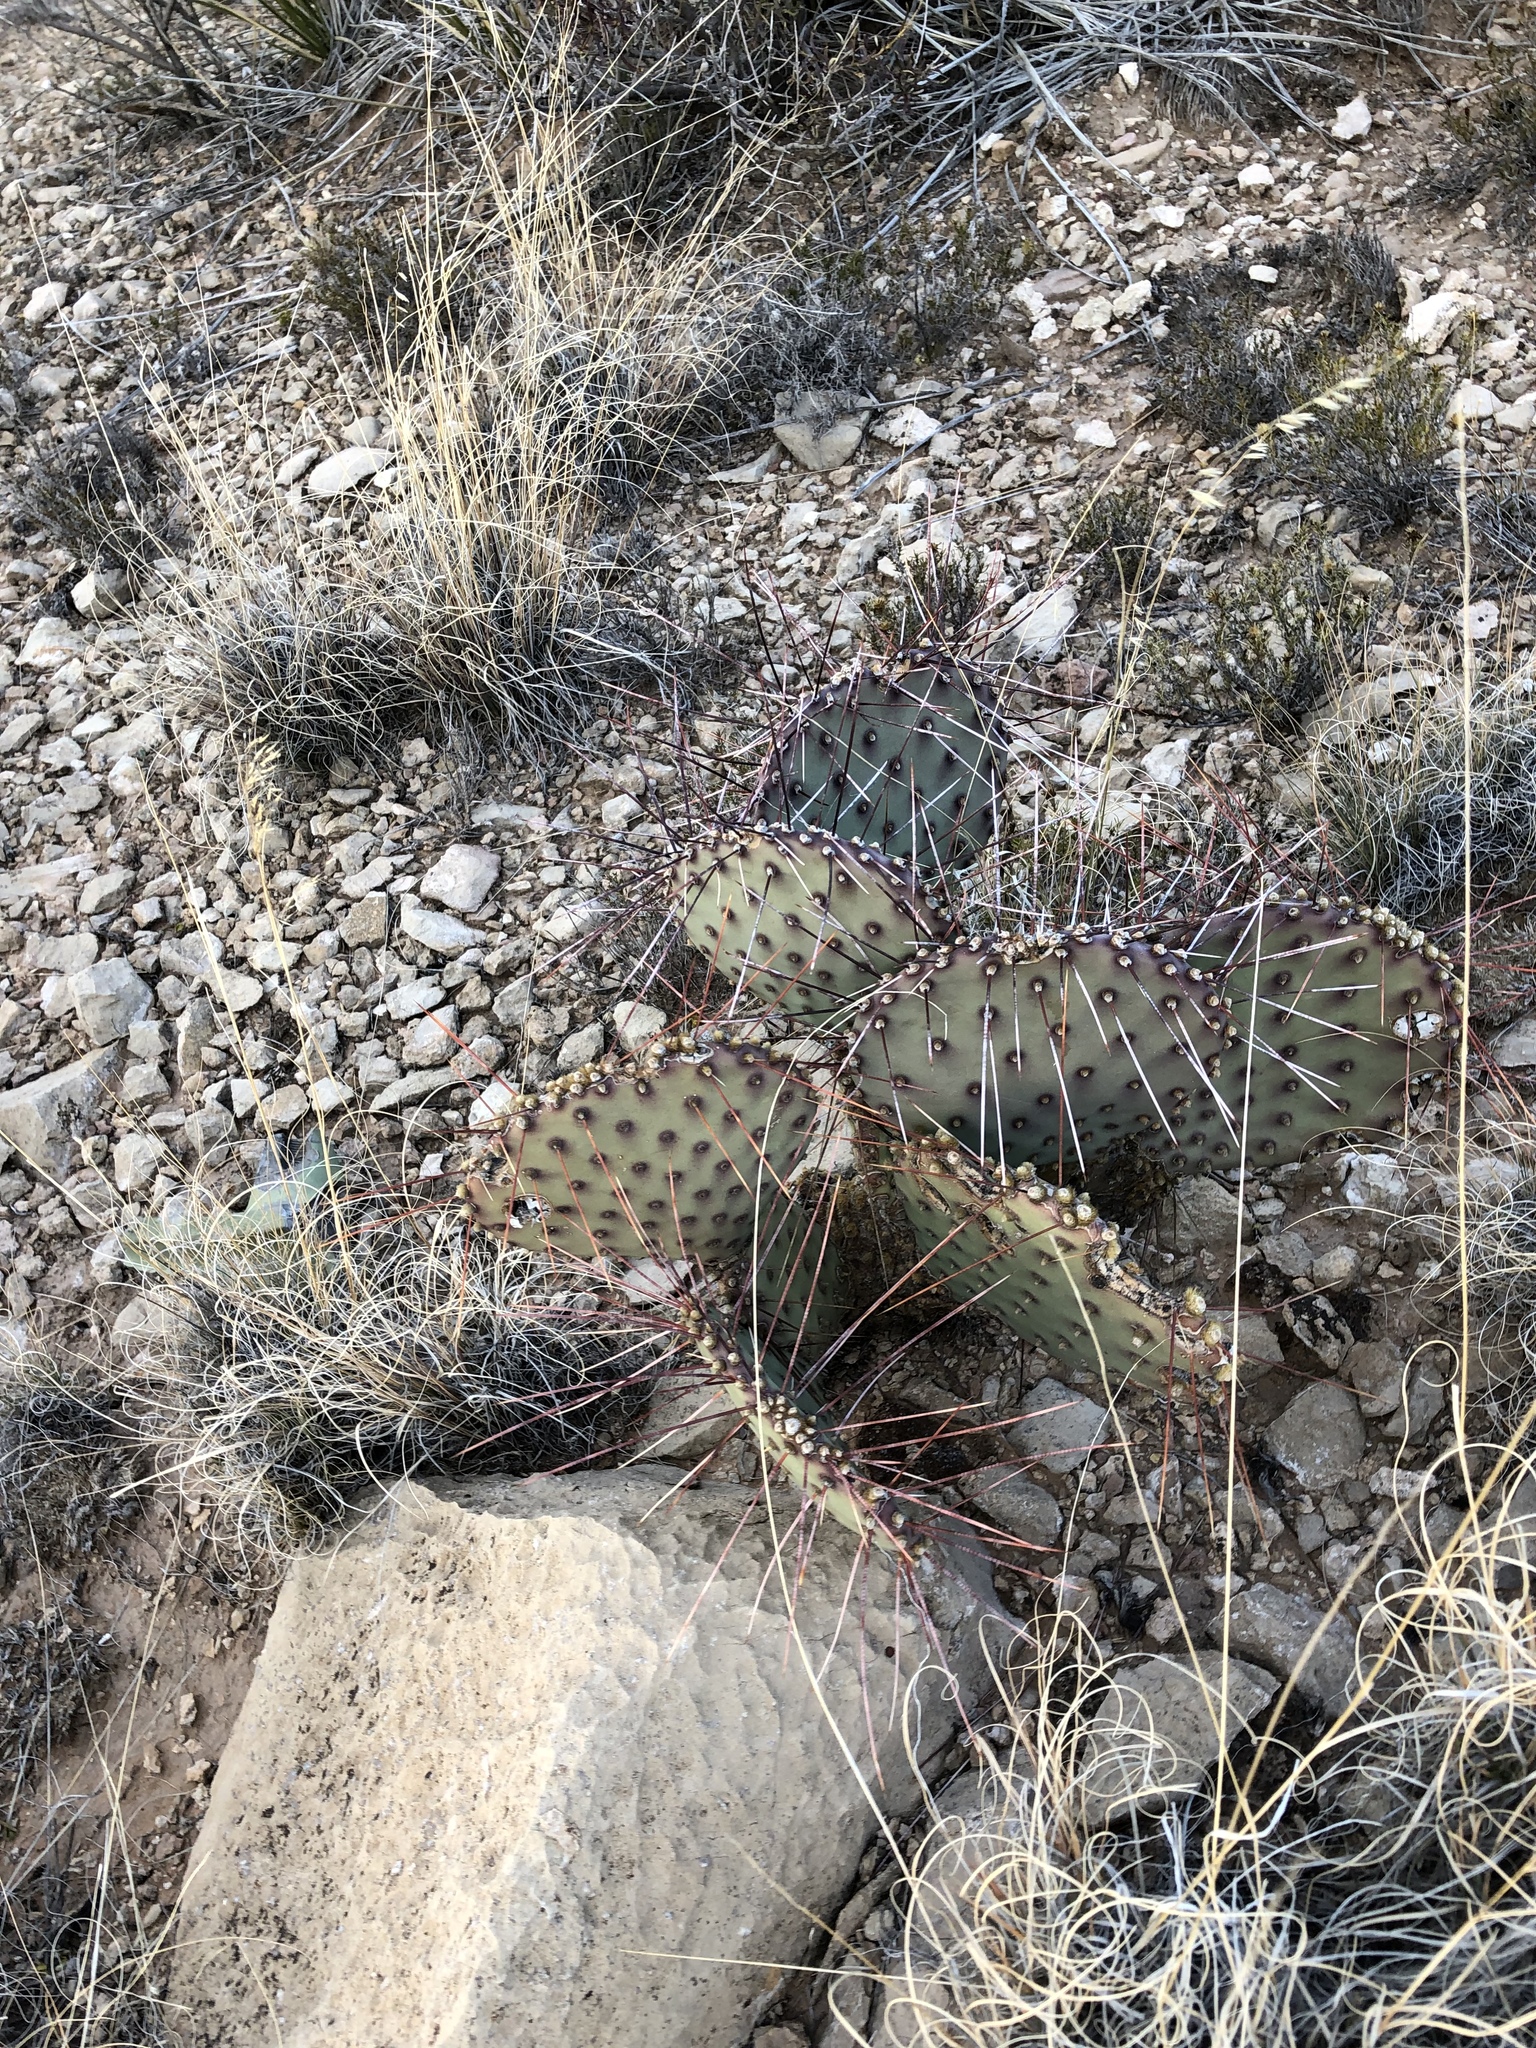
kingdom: Plantae
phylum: Tracheophyta
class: Magnoliopsida
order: Caryophyllales
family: Cactaceae
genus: Opuntia
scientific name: Opuntia macrocentra
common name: Purple prickly-pear
